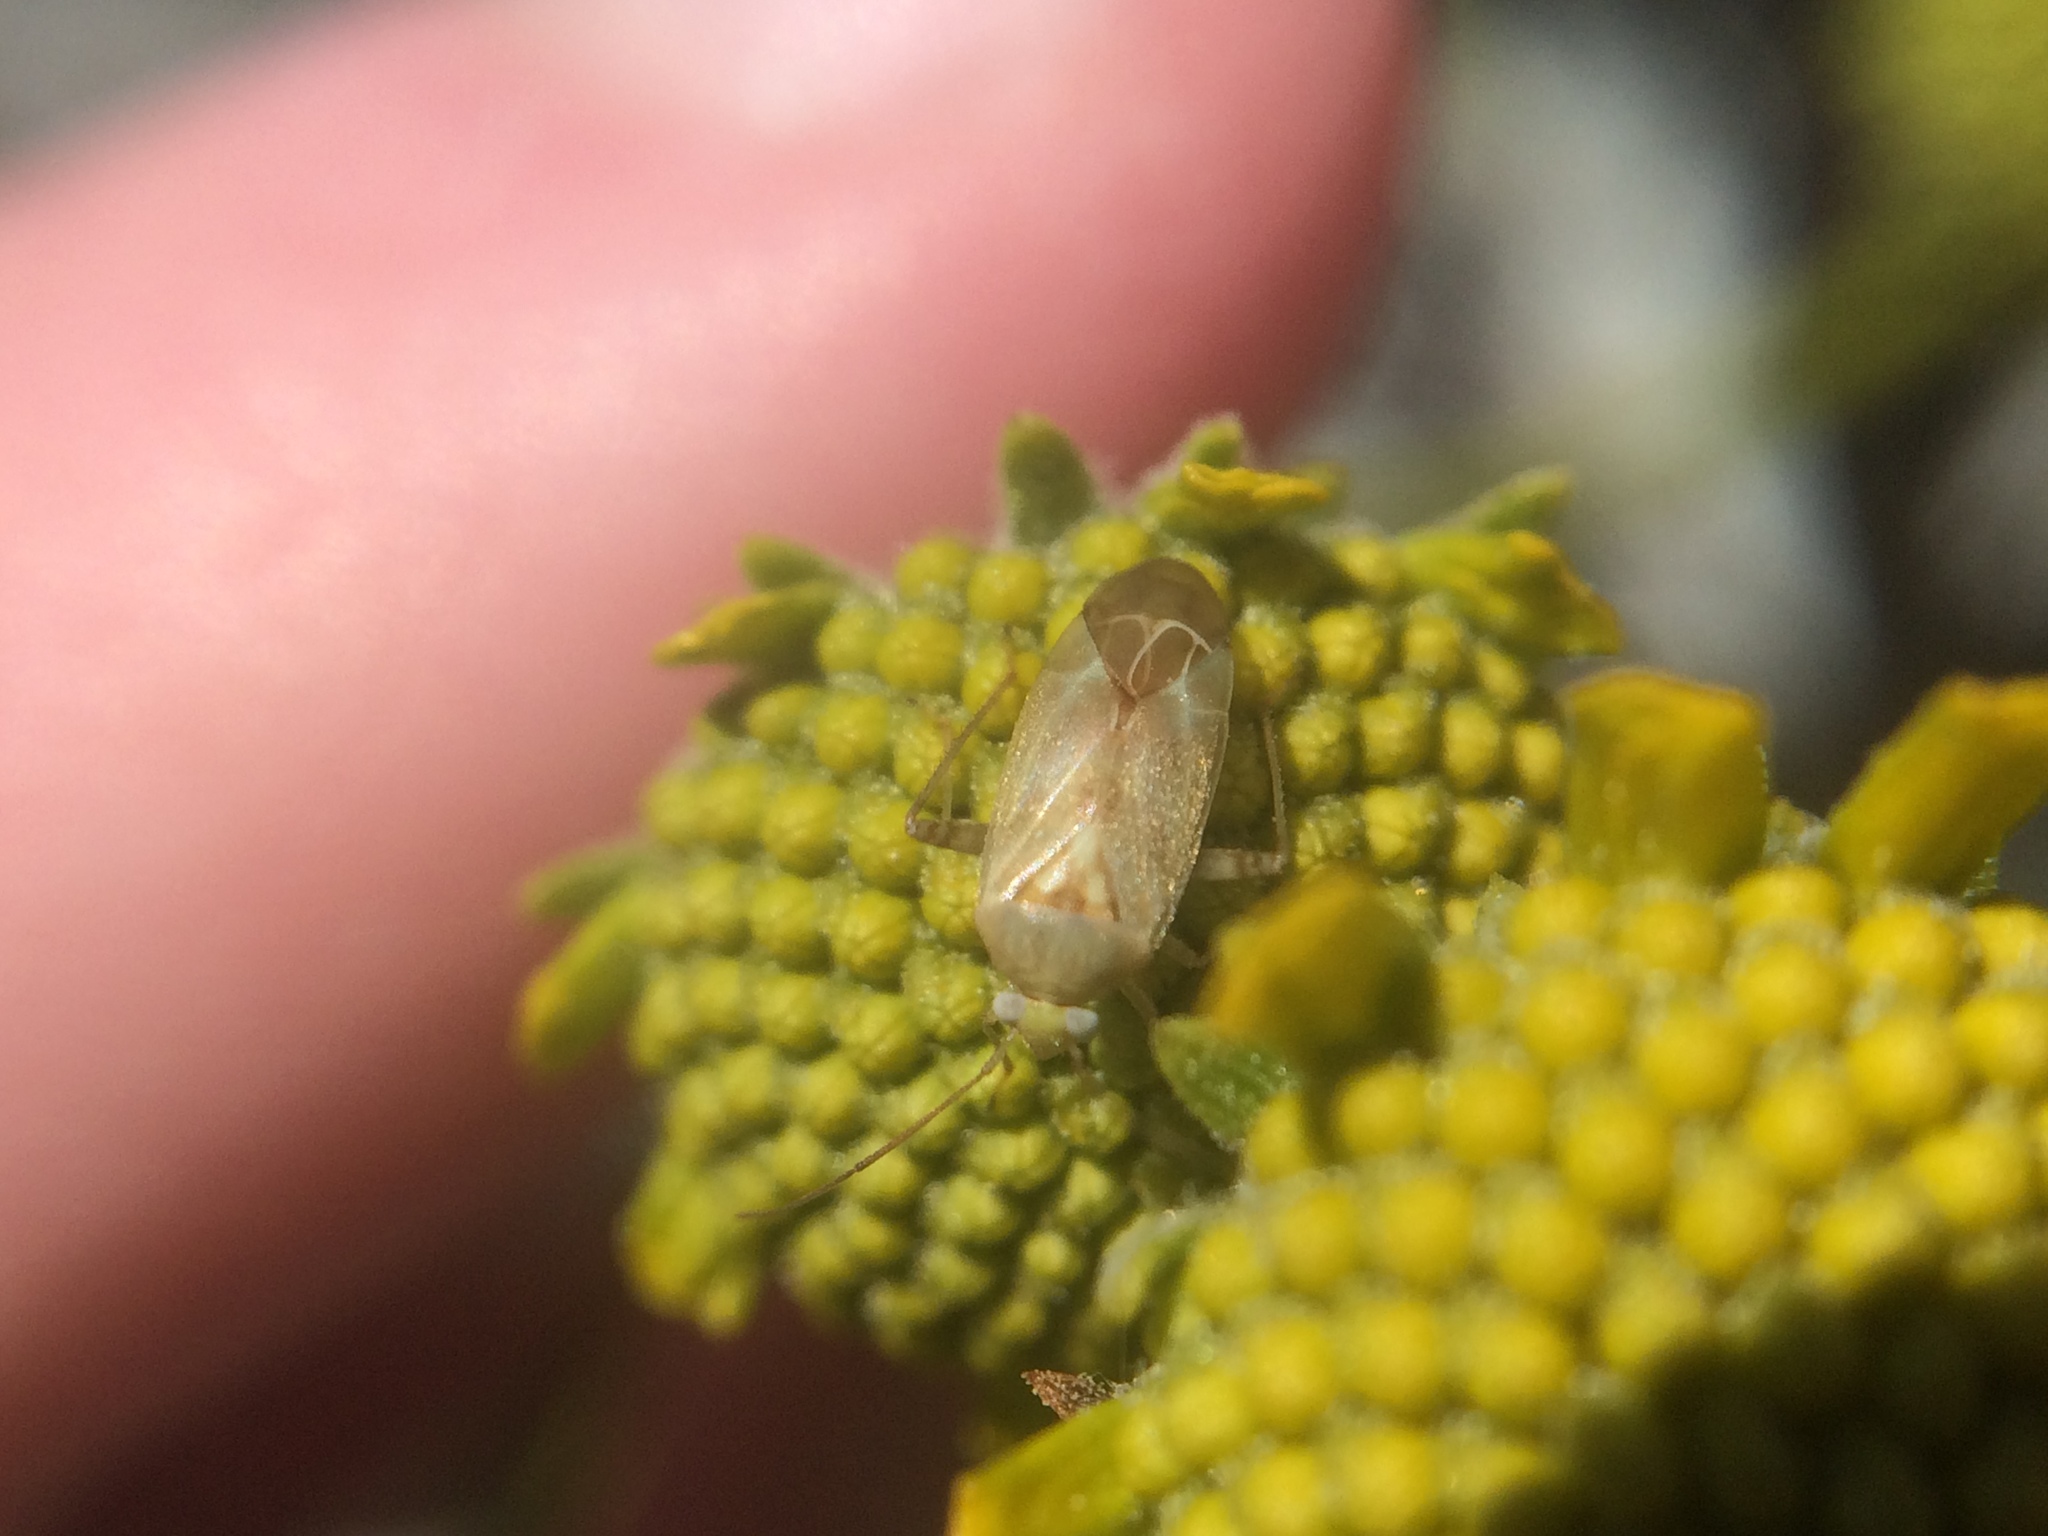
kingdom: Animalia
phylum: Arthropoda
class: Insecta
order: Hemiptera
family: Miridae
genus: Taylorilygus
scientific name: Taylorilygus apicalis
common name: Plant bug
